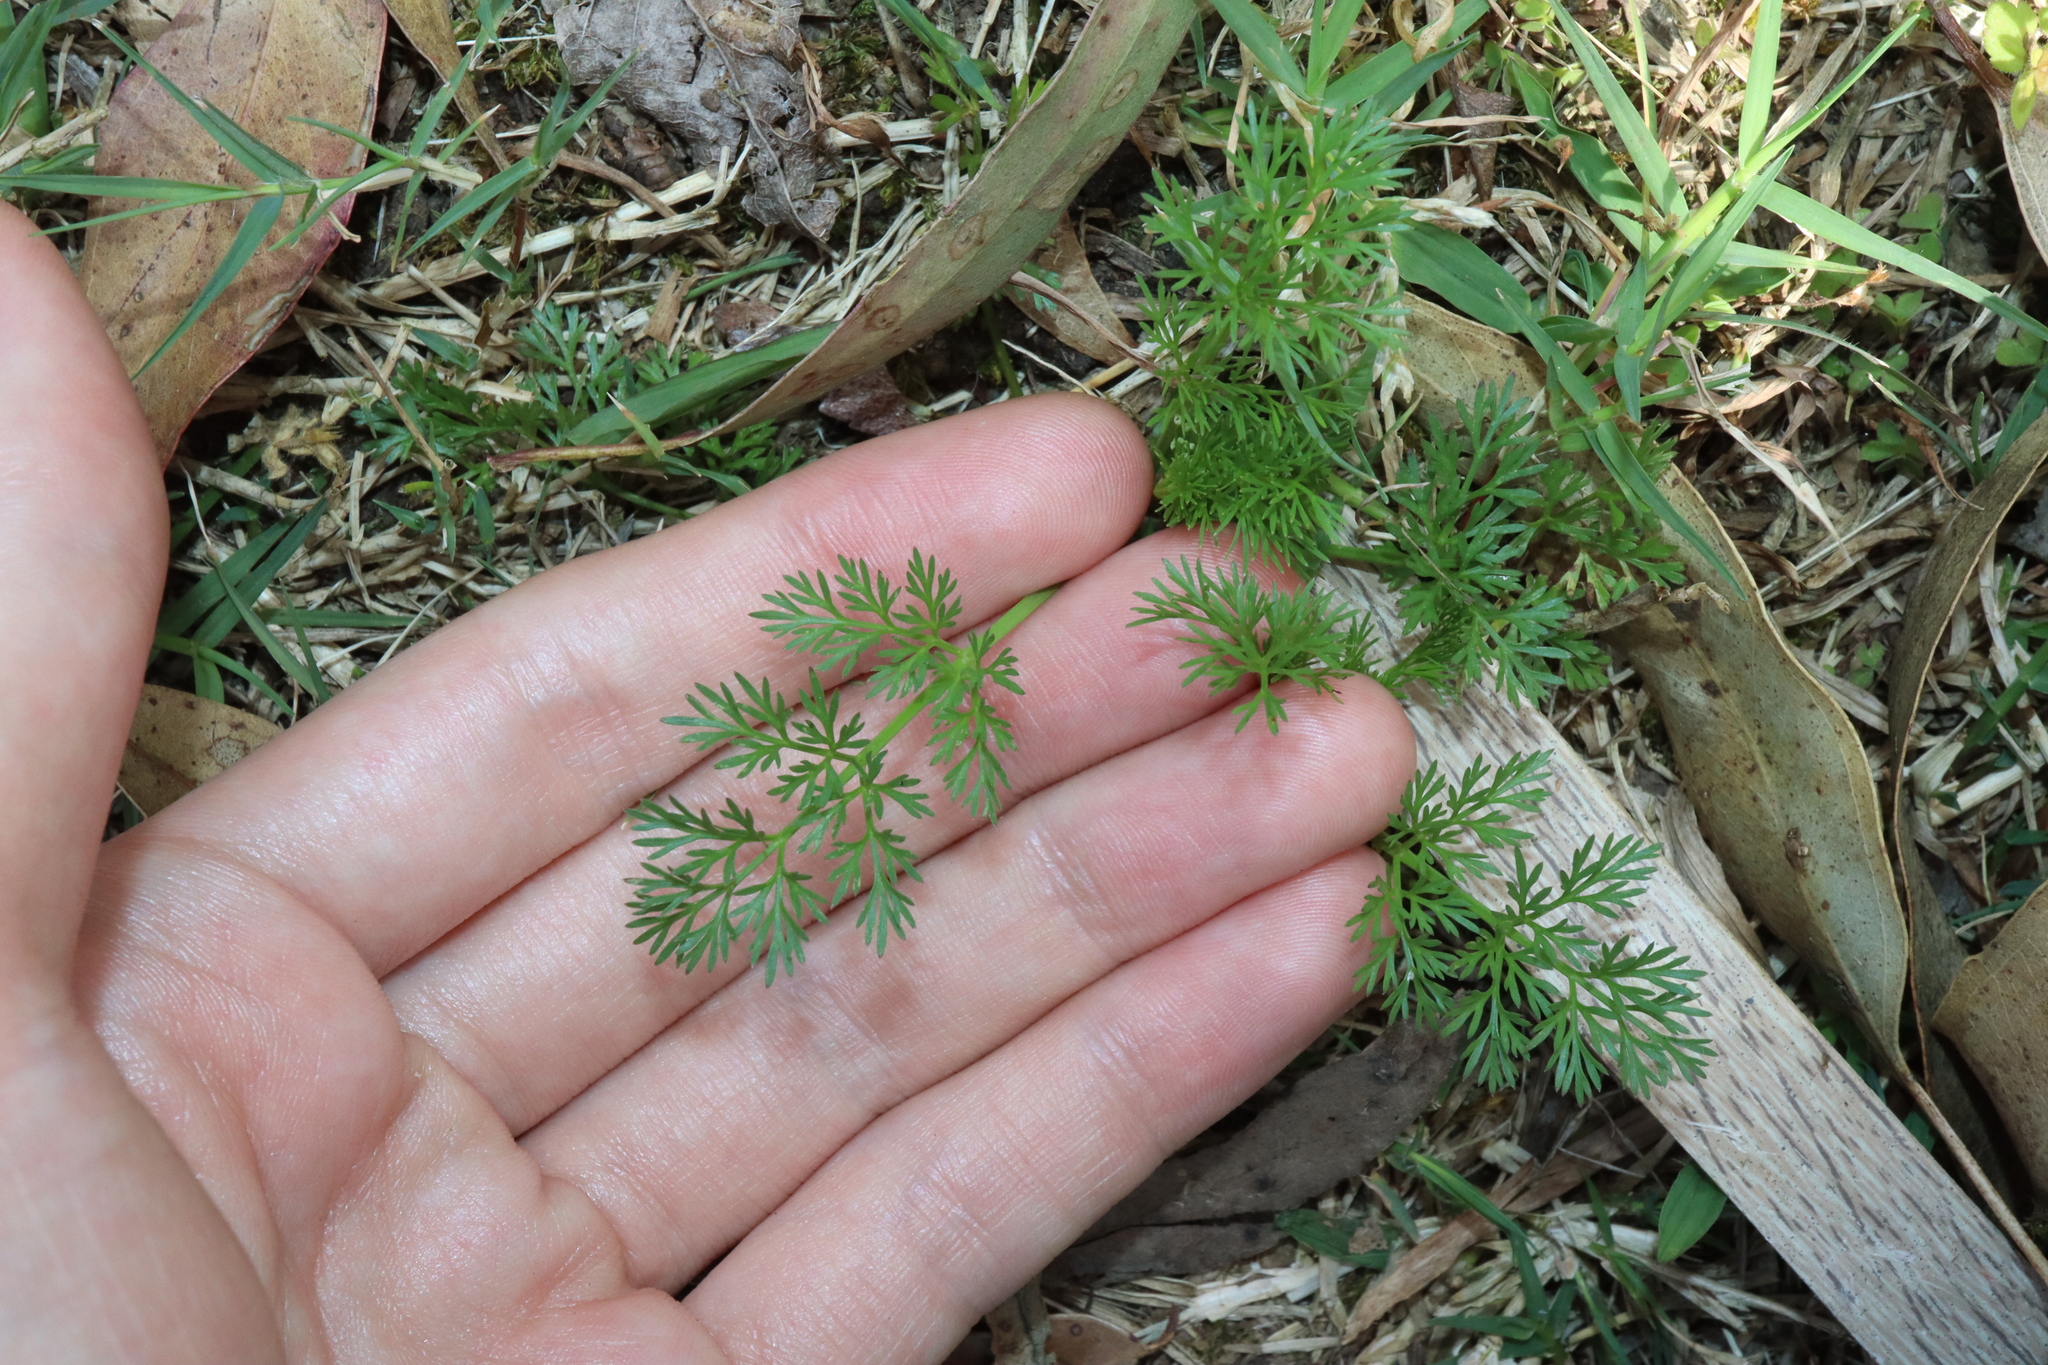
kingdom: Plantae
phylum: Tracheophyta
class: Magnoliopsida
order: Apiales
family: Apiaceae
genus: Cyclospermum
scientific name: Cyclospermum leptophyllum
